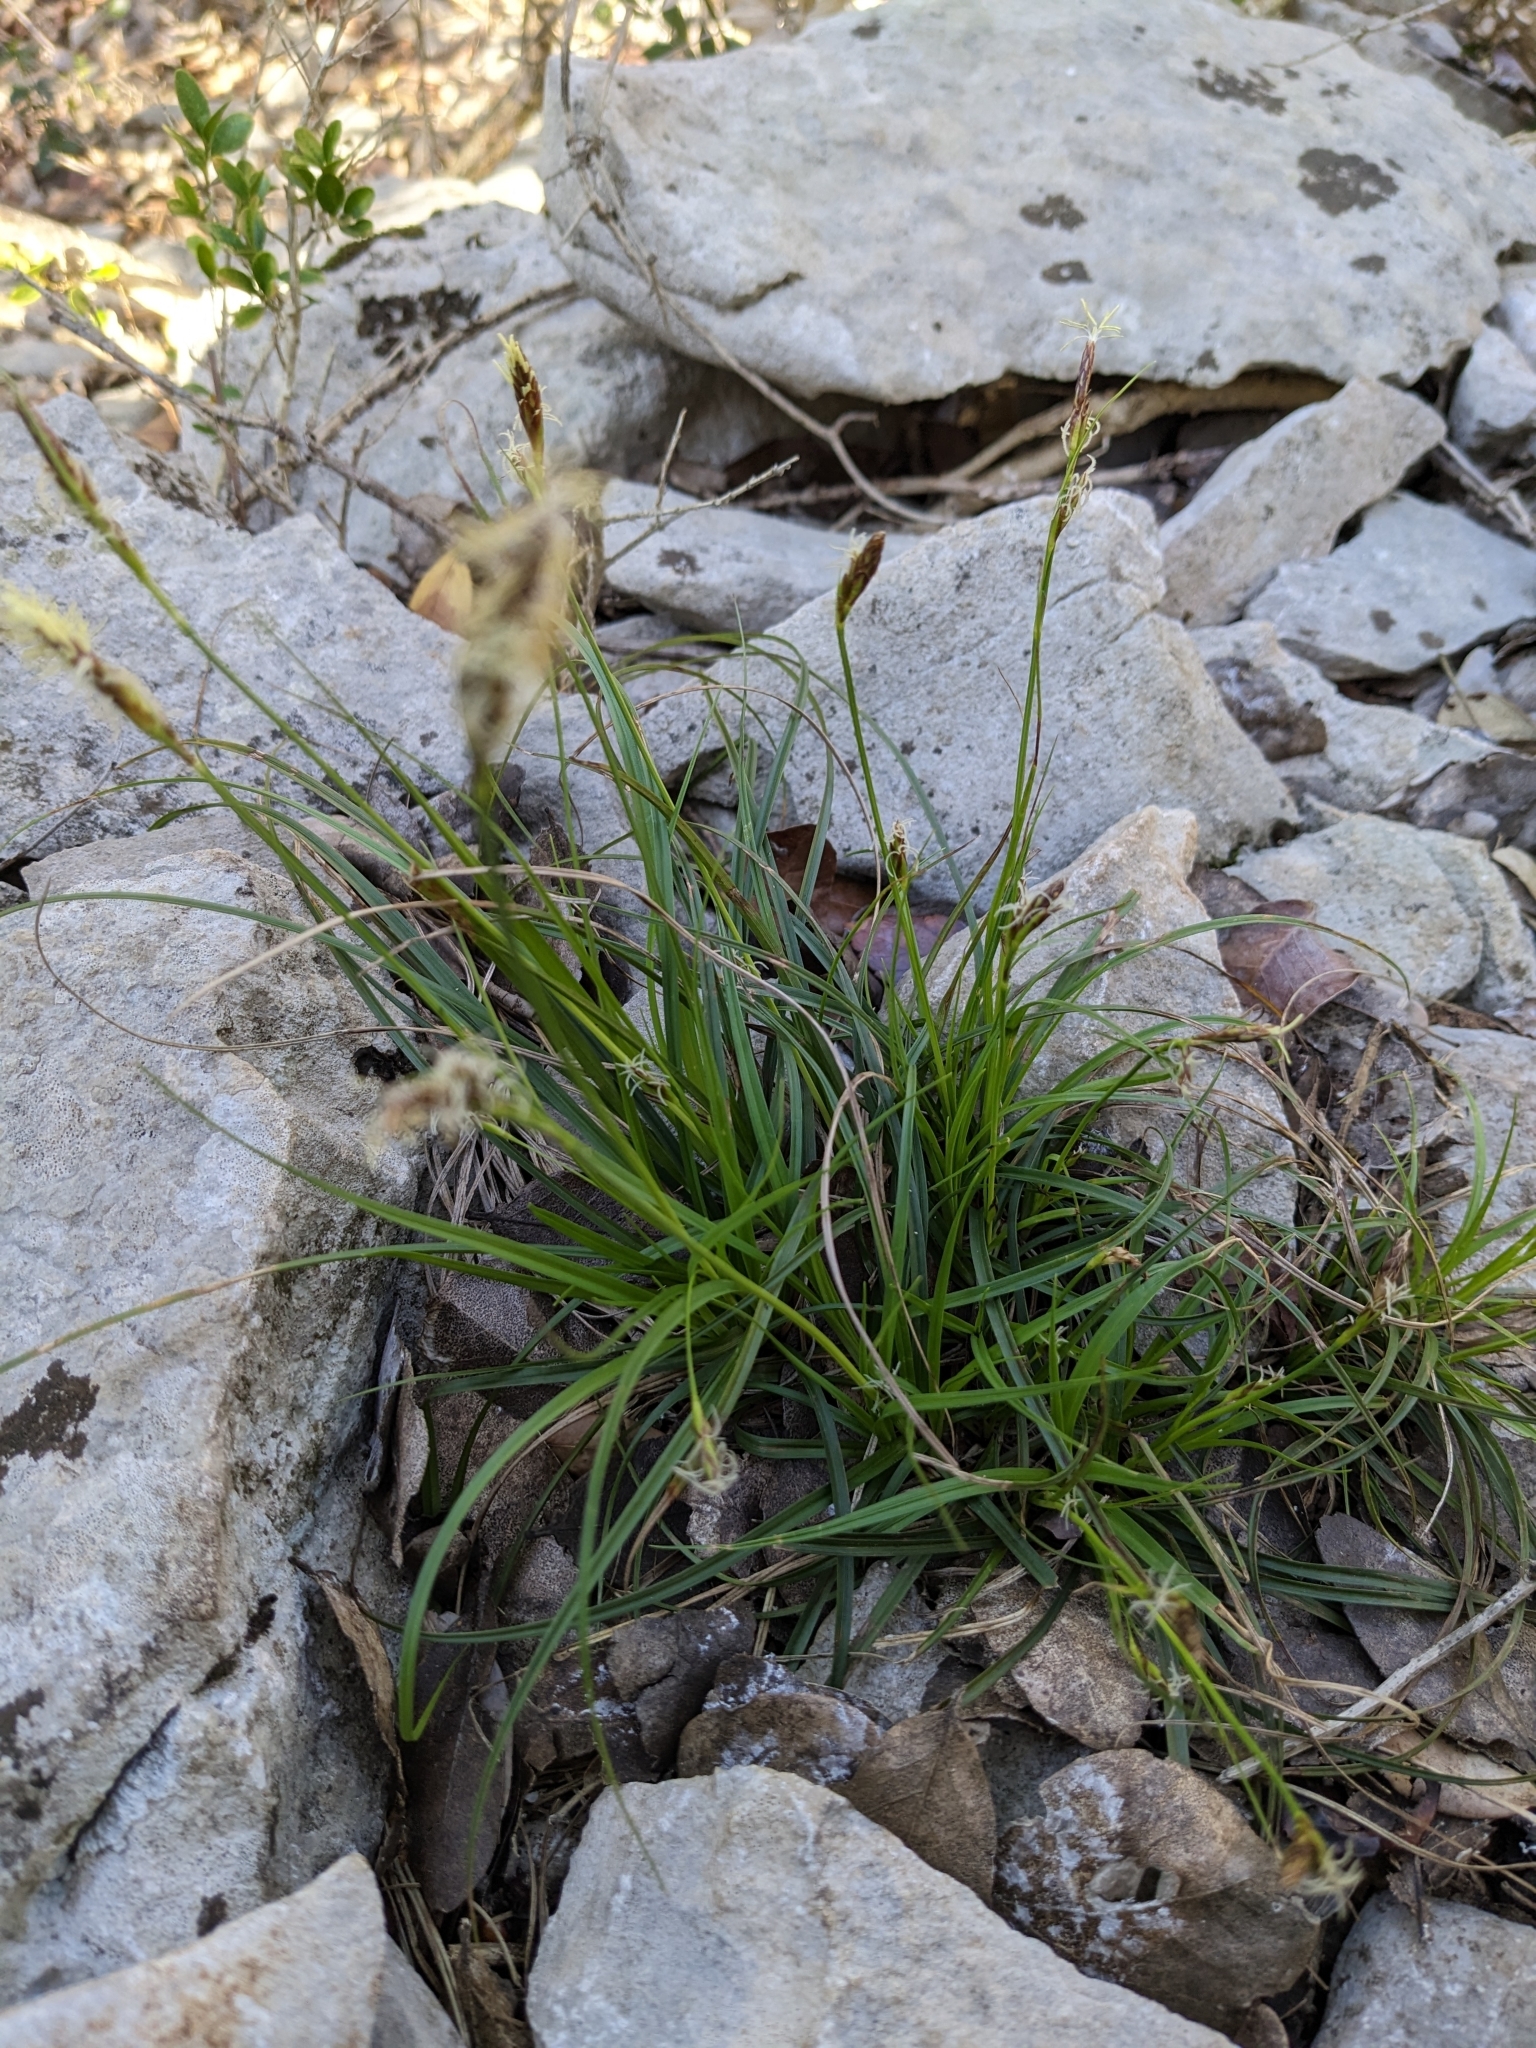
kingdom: Plantae
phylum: Tracheophyta
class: Liliopsida
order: Poales
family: Cyperaceae
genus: Carex
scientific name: Carex halleriana
